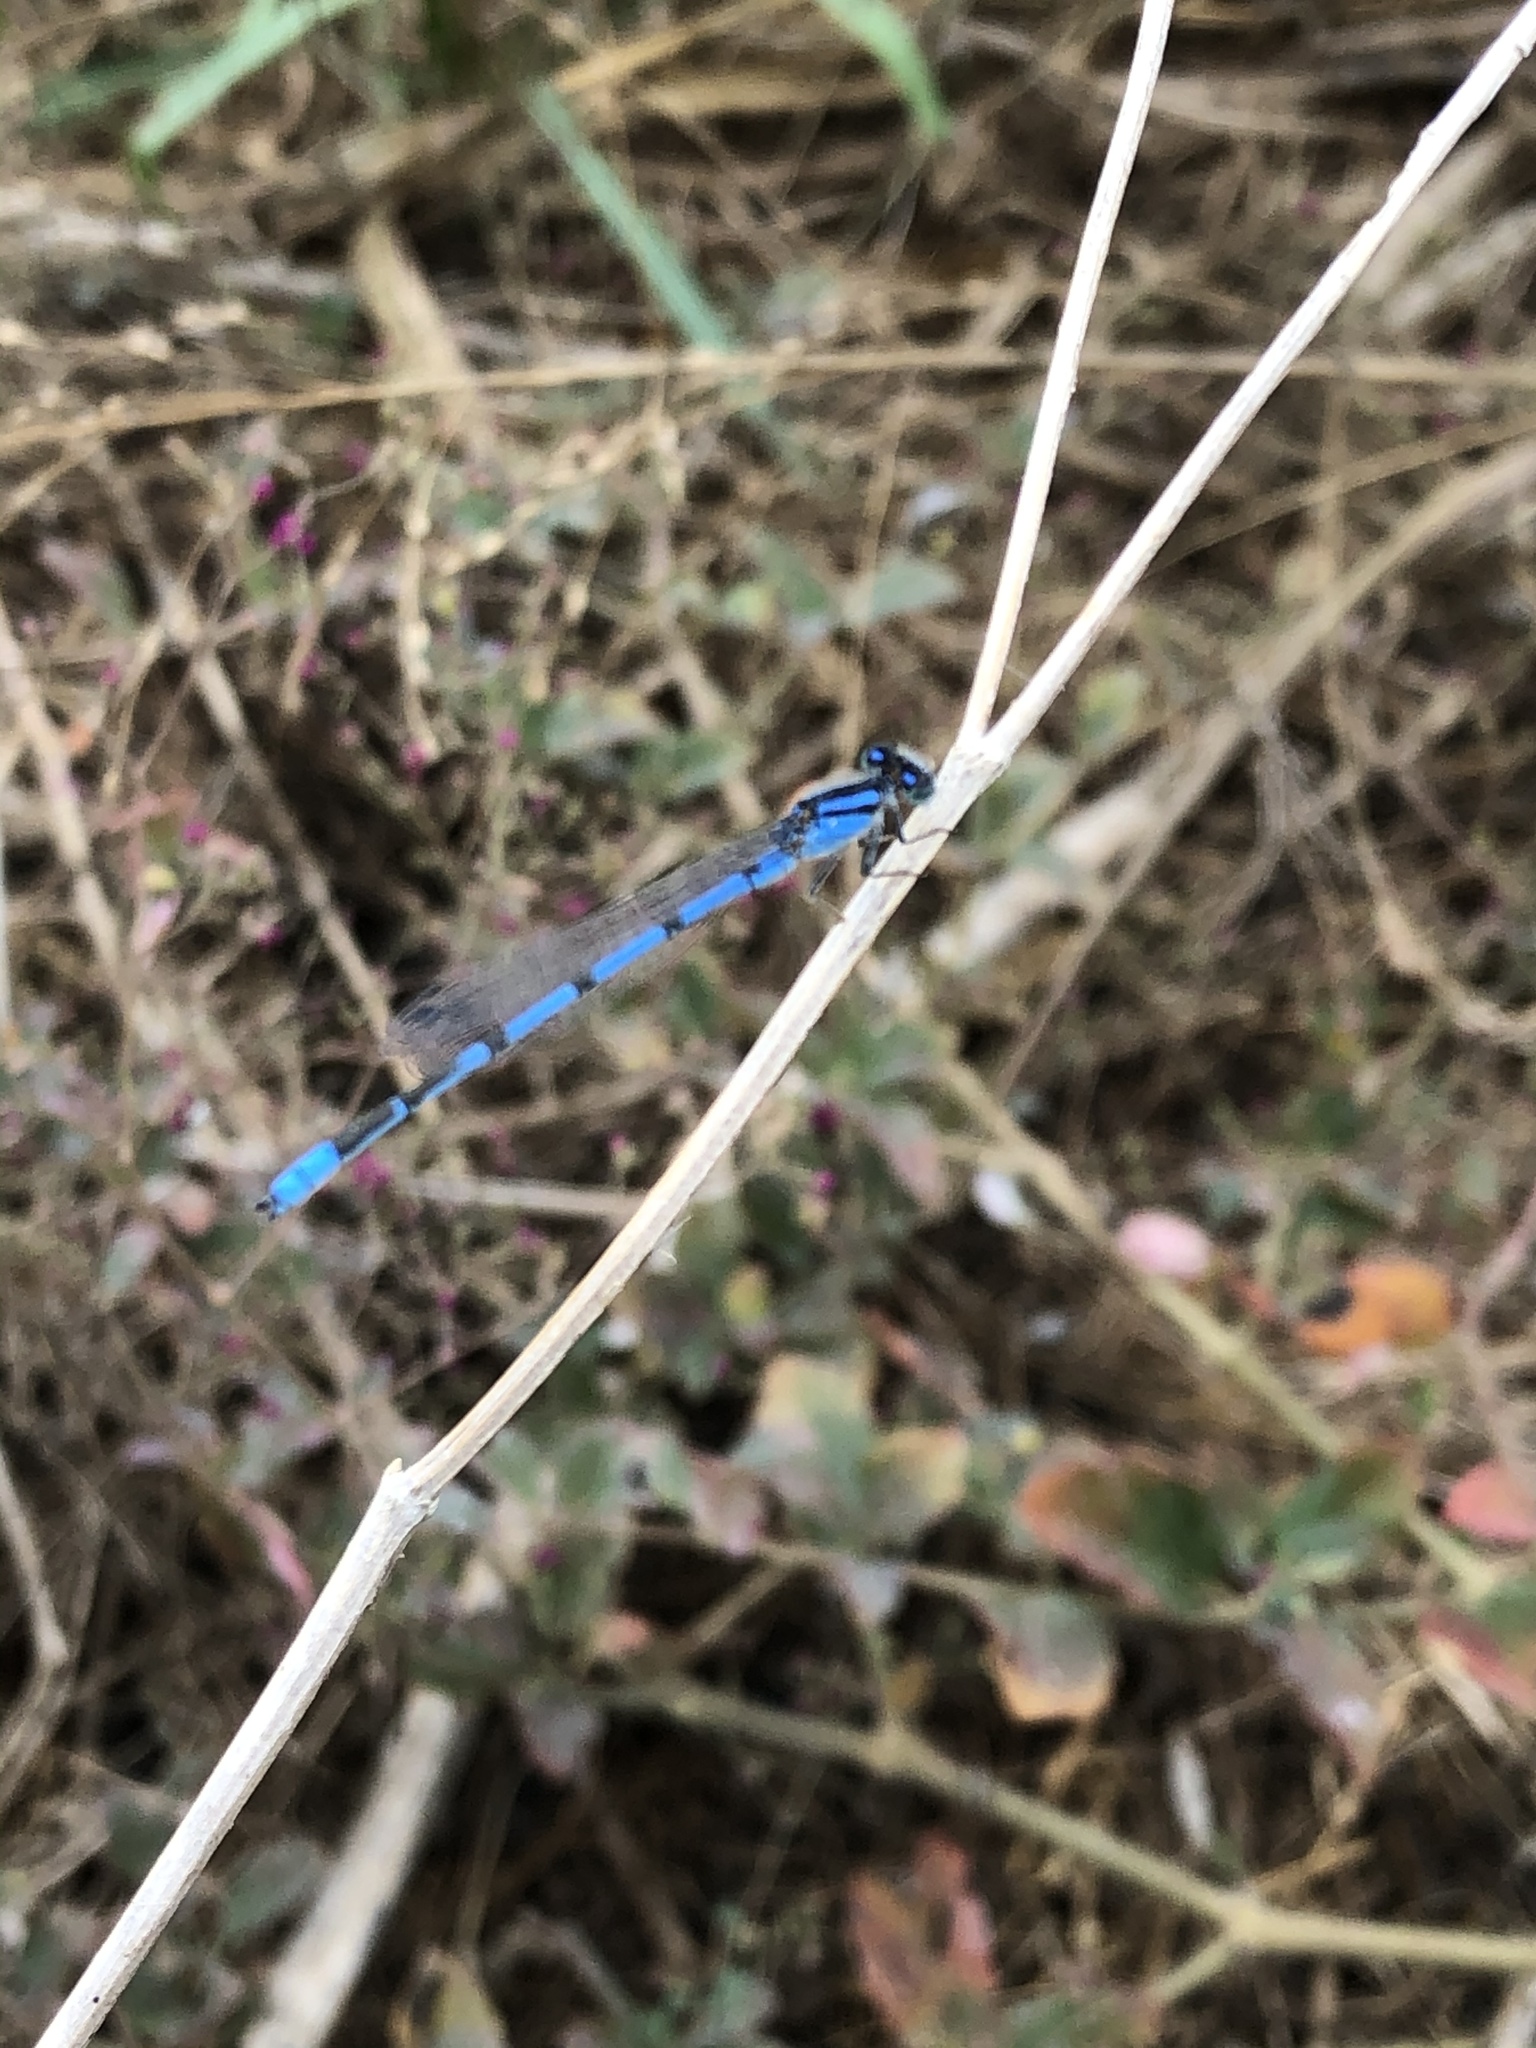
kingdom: Animalia
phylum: Arthropoda
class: Insecta
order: Odonata
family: Coenagrionidae
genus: Enallagma
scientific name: Enallagma civile
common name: Damselfly
